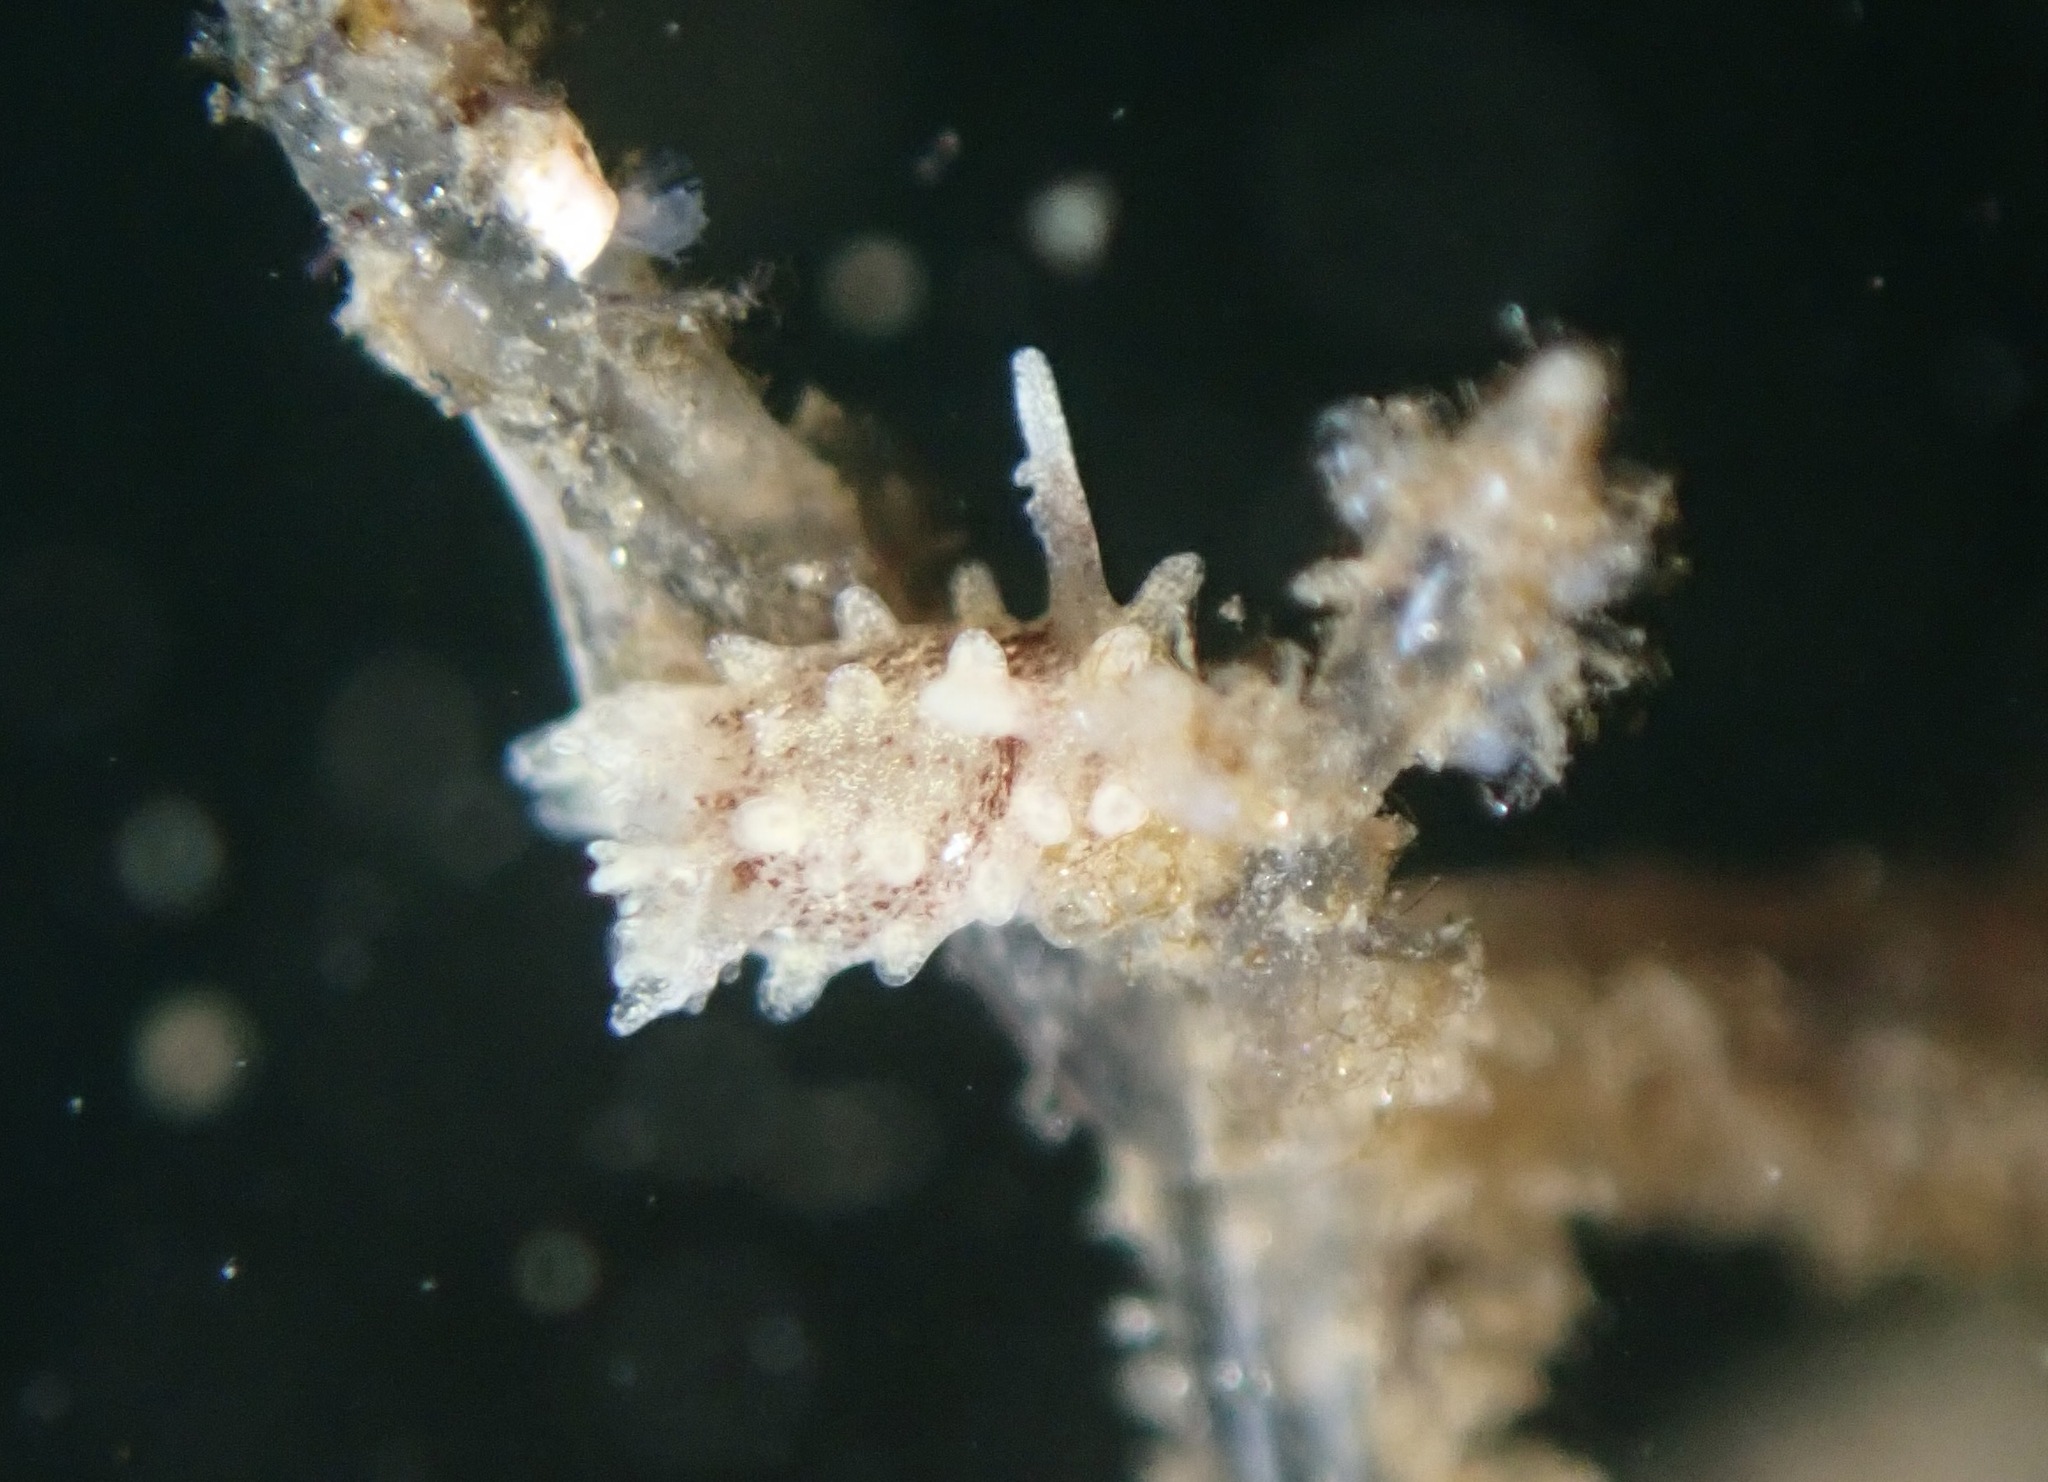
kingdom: Animalia
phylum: Mollusca
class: Gastropoda
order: Nudibranchia
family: Goniodorididae
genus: Okenia
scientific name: Okenia
